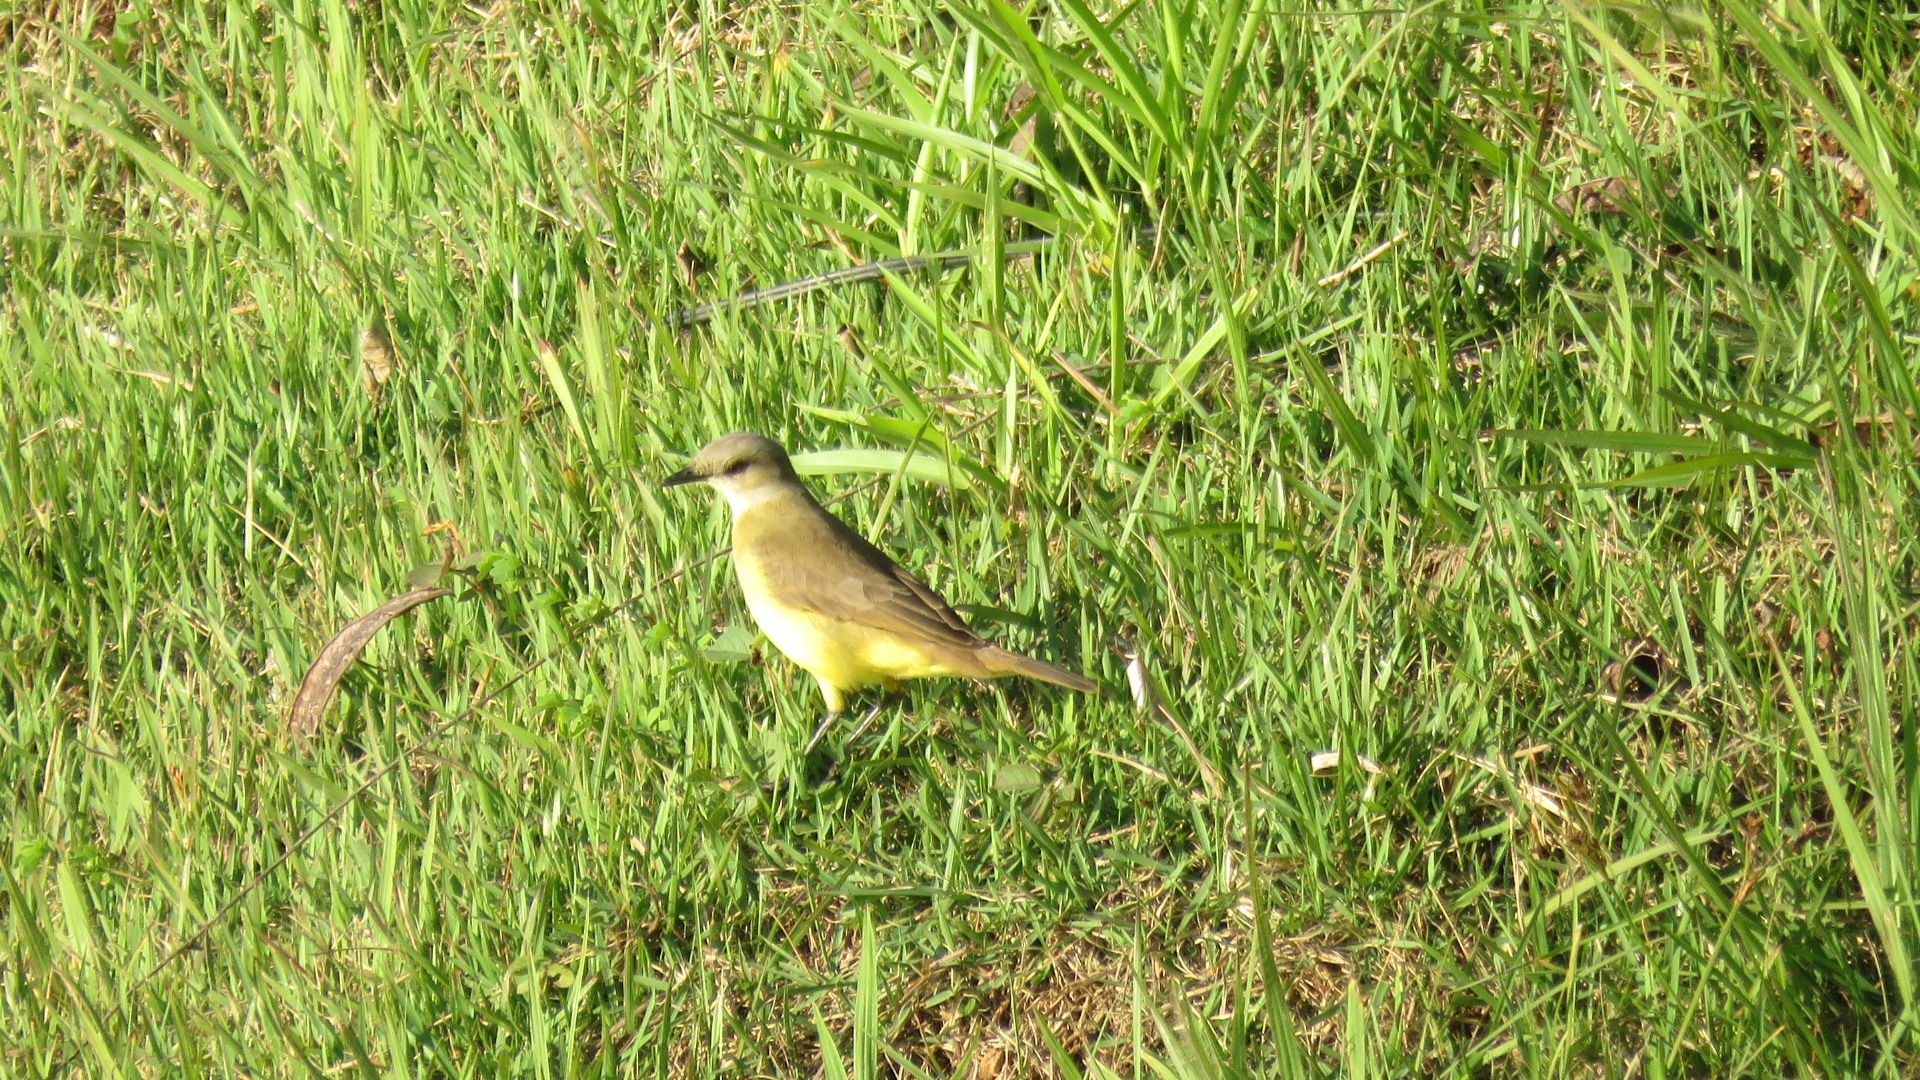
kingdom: Animalia
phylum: Chordata
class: Aves
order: Passeriformes
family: Tyrannidae
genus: Machetornis
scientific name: Machetornis rixosa
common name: Cattle tyrant
